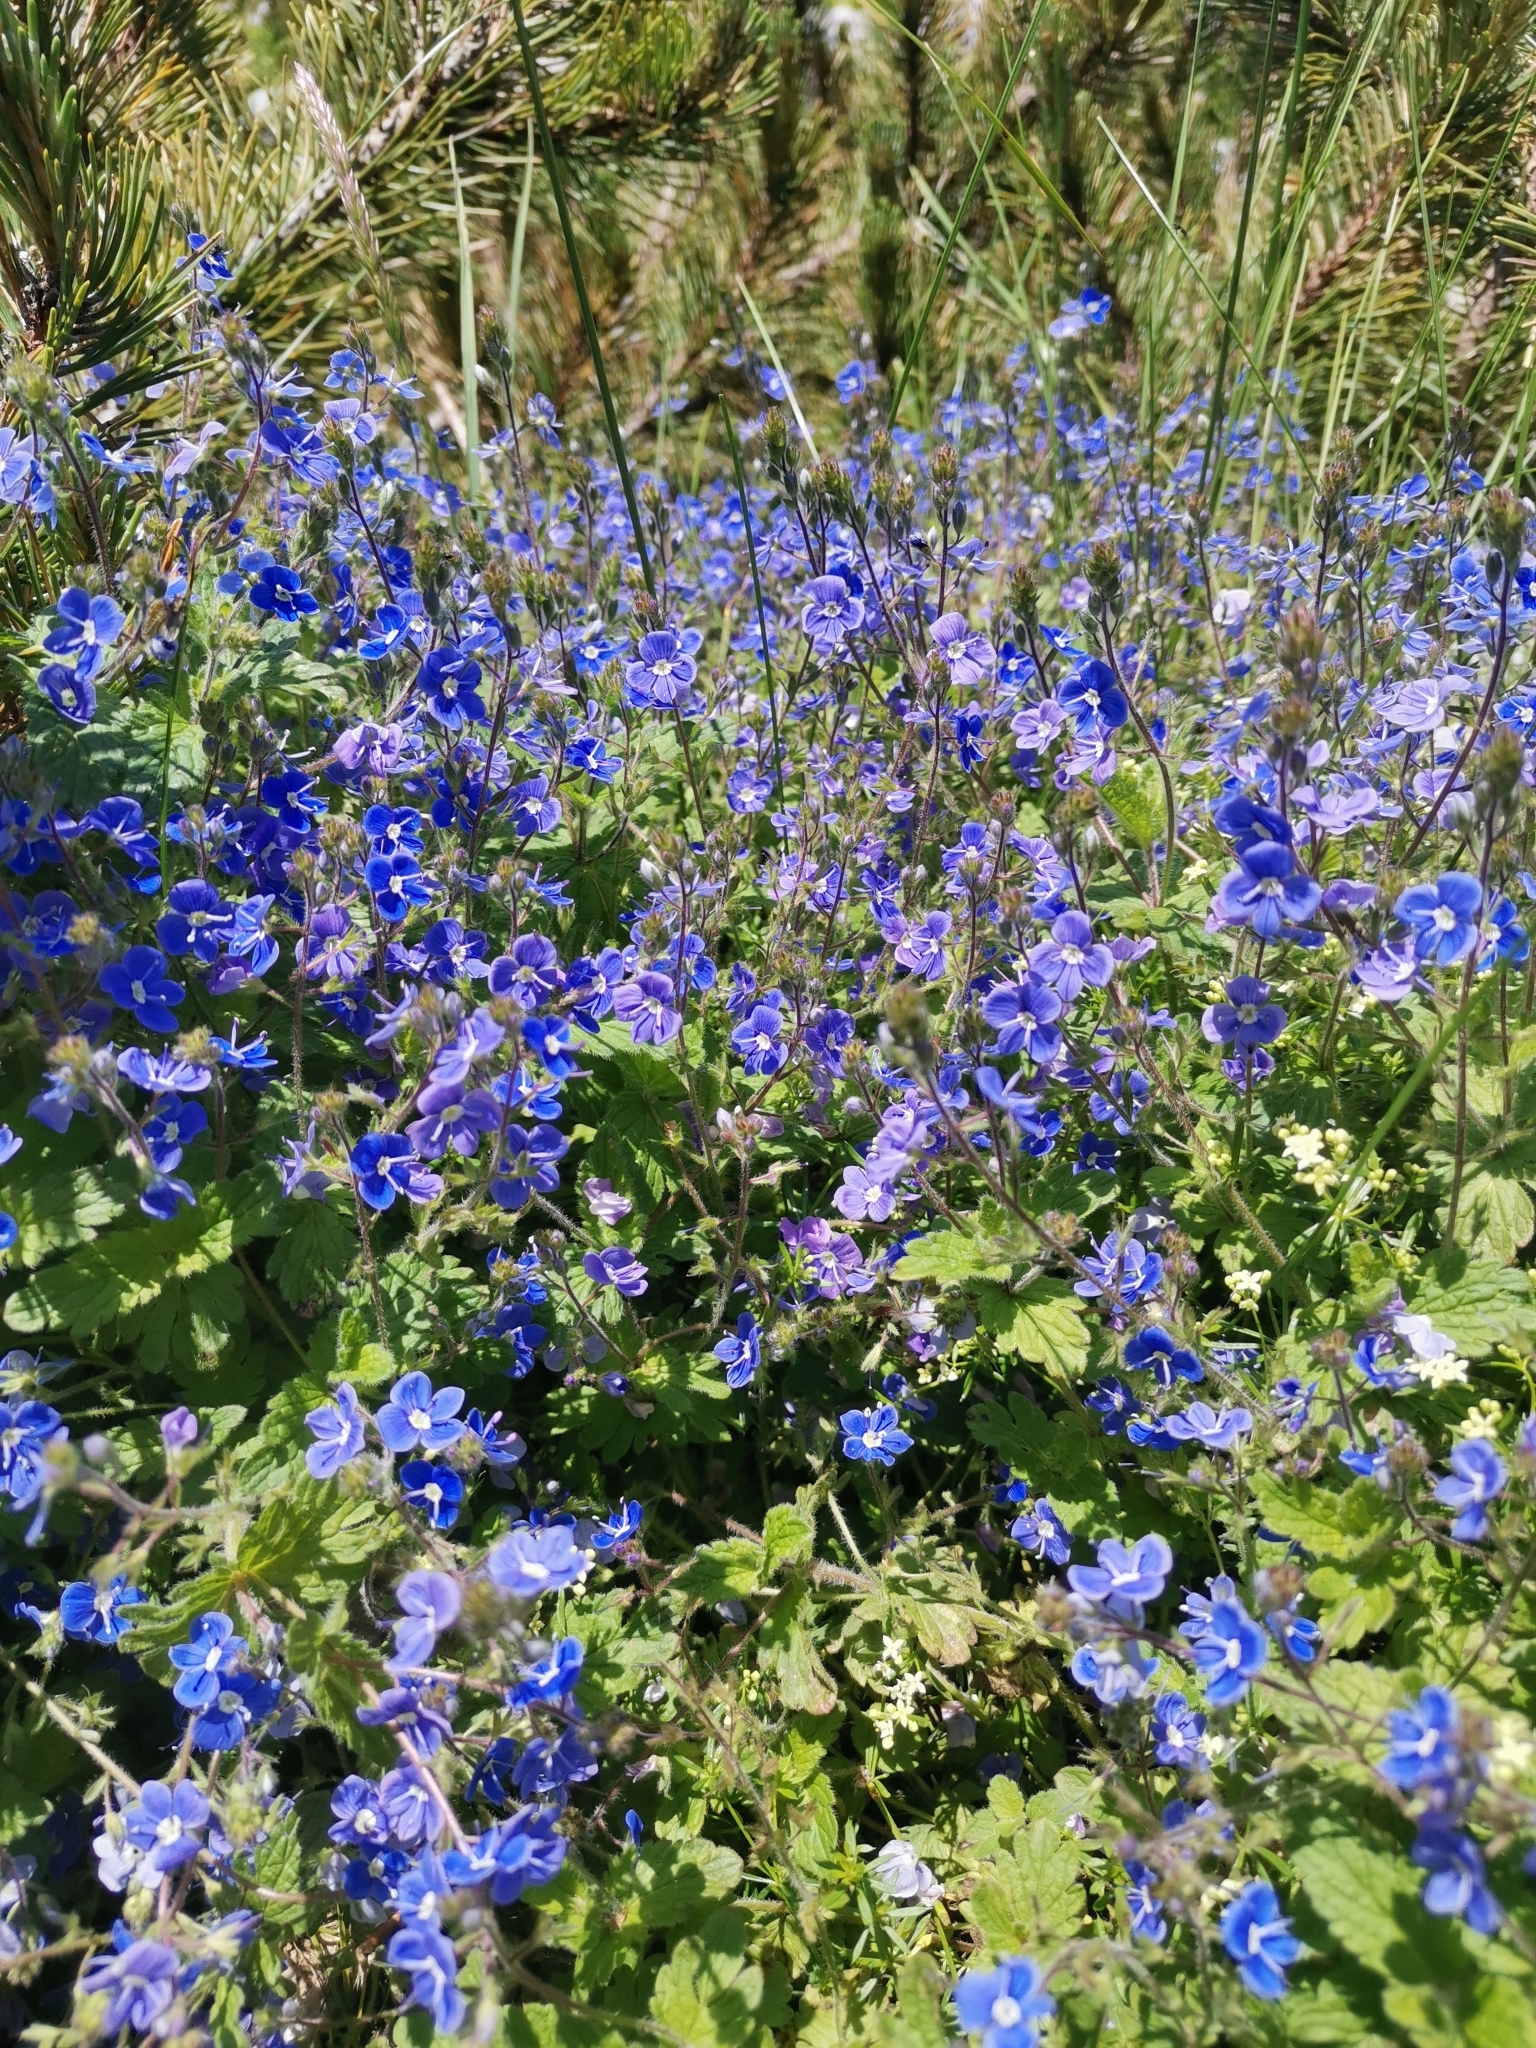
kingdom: Plantae
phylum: Tracheophyta
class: Magnoliopsida
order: Lamiales
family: Plantaginaceae
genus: Veronica
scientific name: Veronica chamaedrys
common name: Germander speedwell
